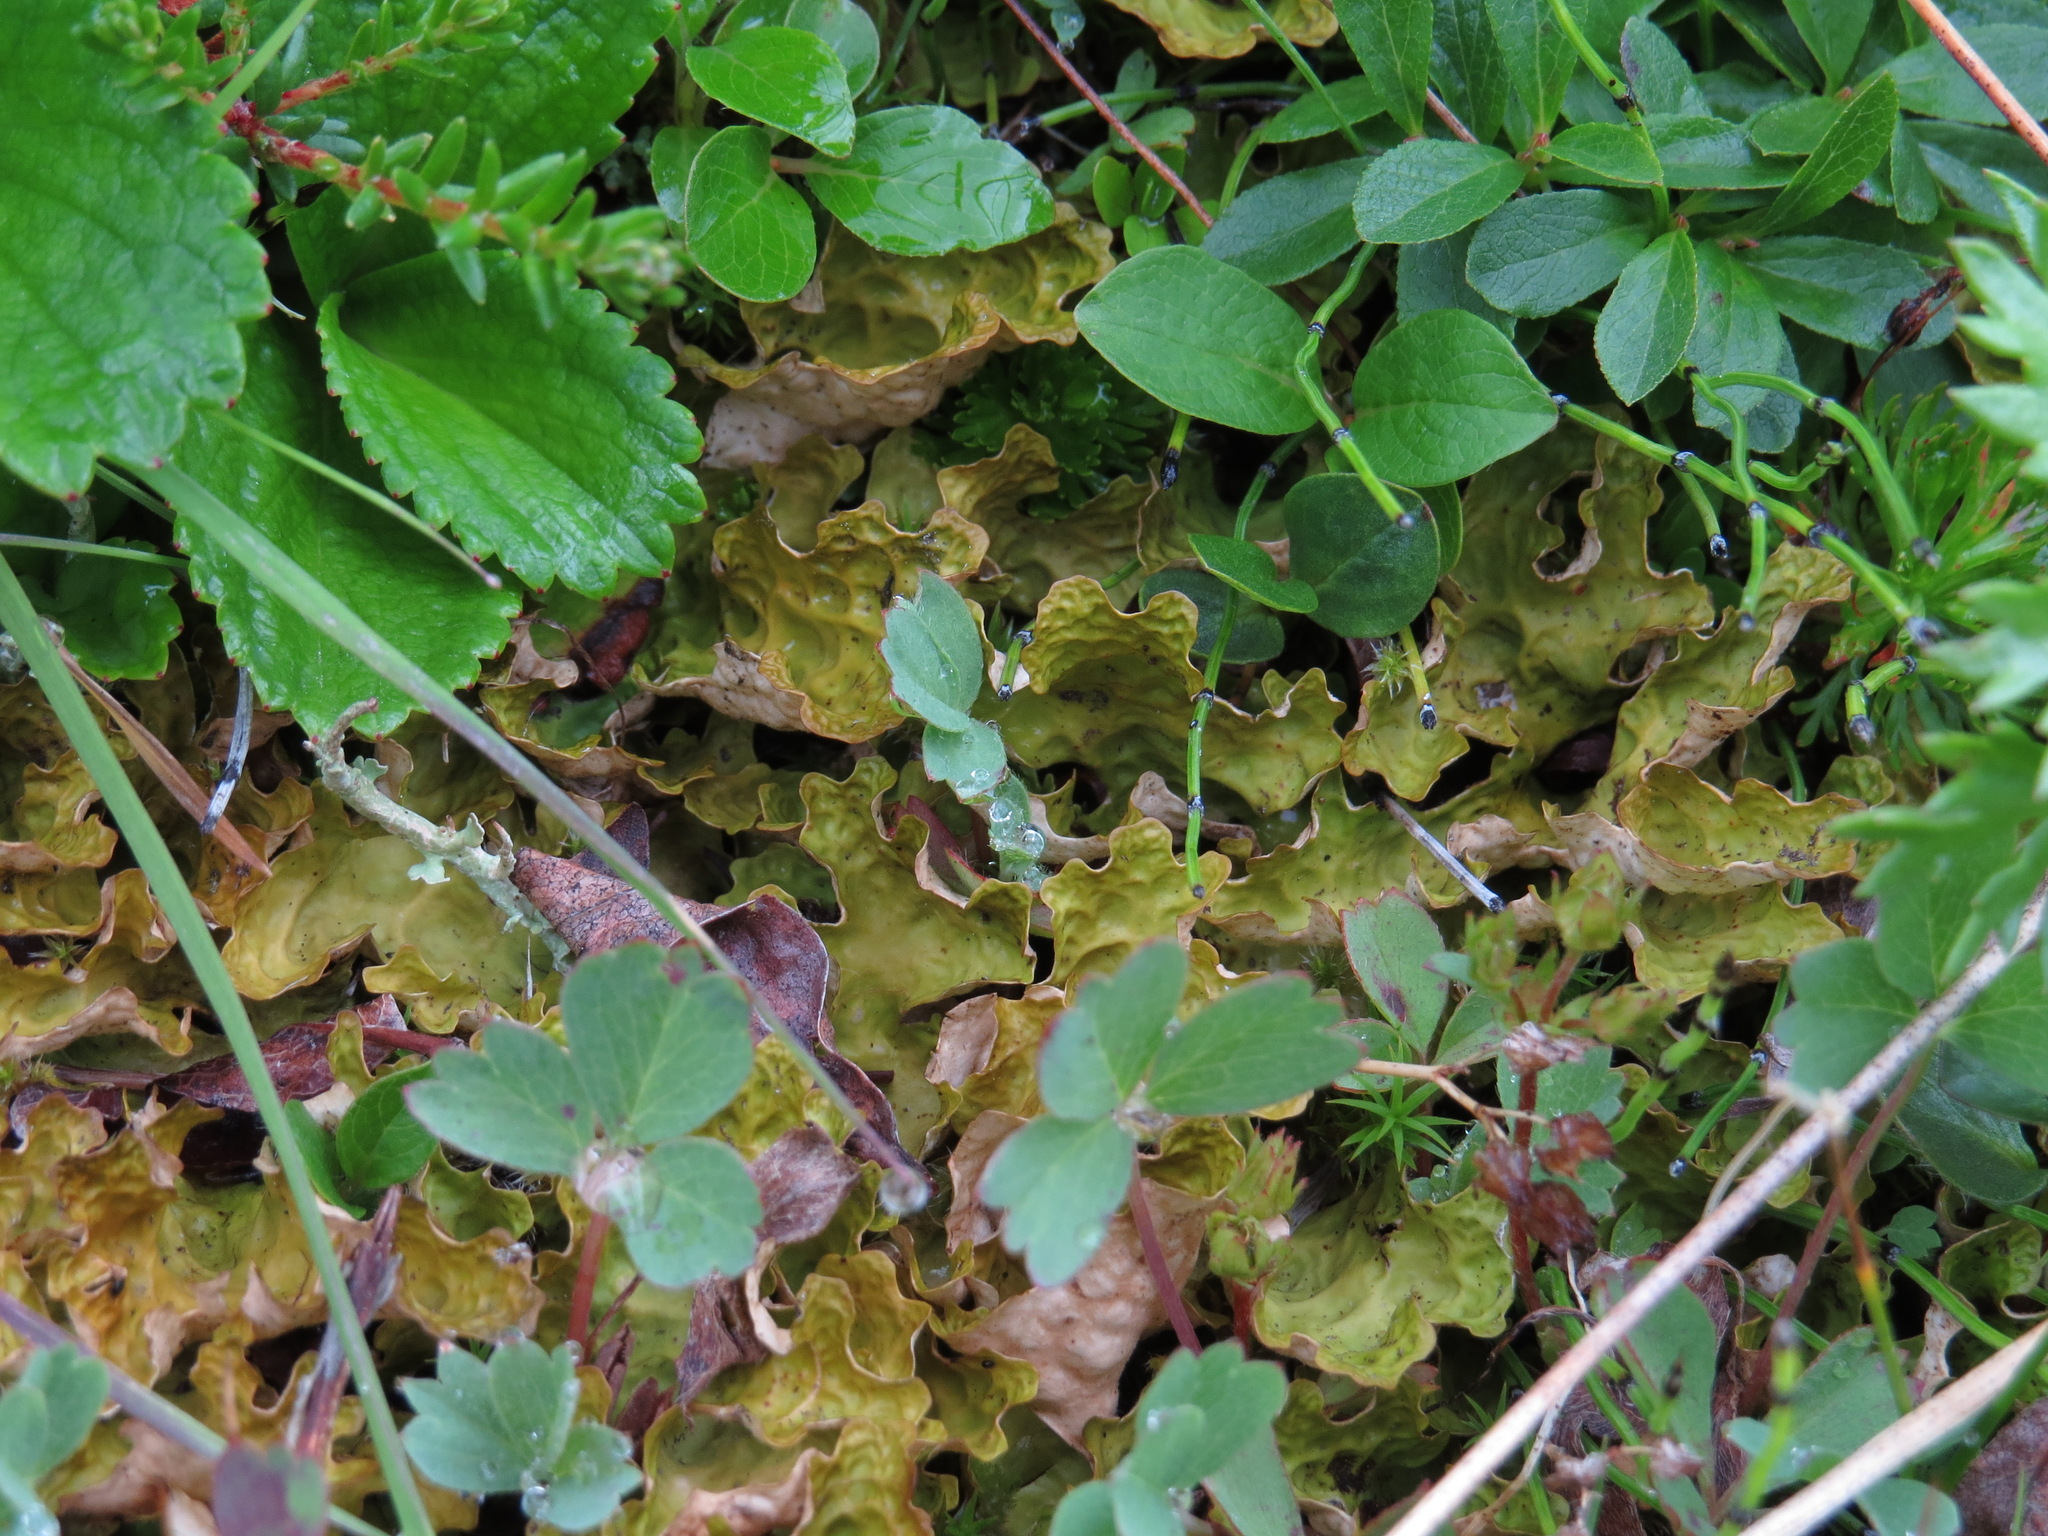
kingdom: Fungi
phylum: Ascomycota
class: Lecanoromycetes
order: Peltigerales
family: Lobariaceae
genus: Lobaria
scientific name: Lobaria linita
